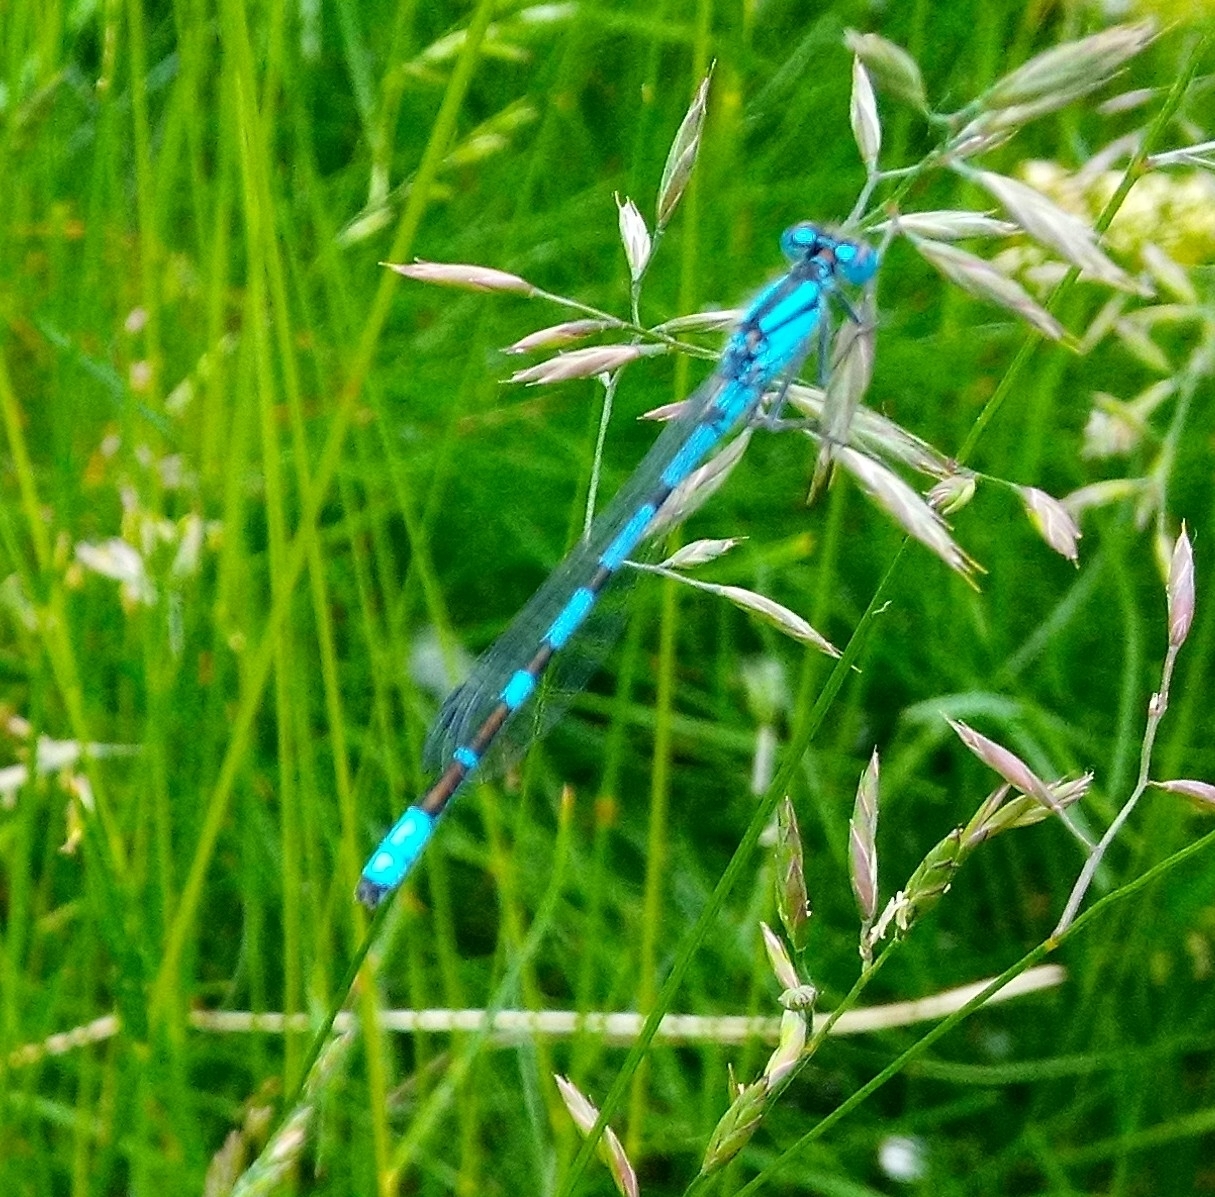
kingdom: Animalia
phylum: Arthropoda
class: Insecta
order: Odonata
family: Coenagrionidae
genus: Enallagma
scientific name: Enallagma cyathigerum
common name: Common blue damselfly
